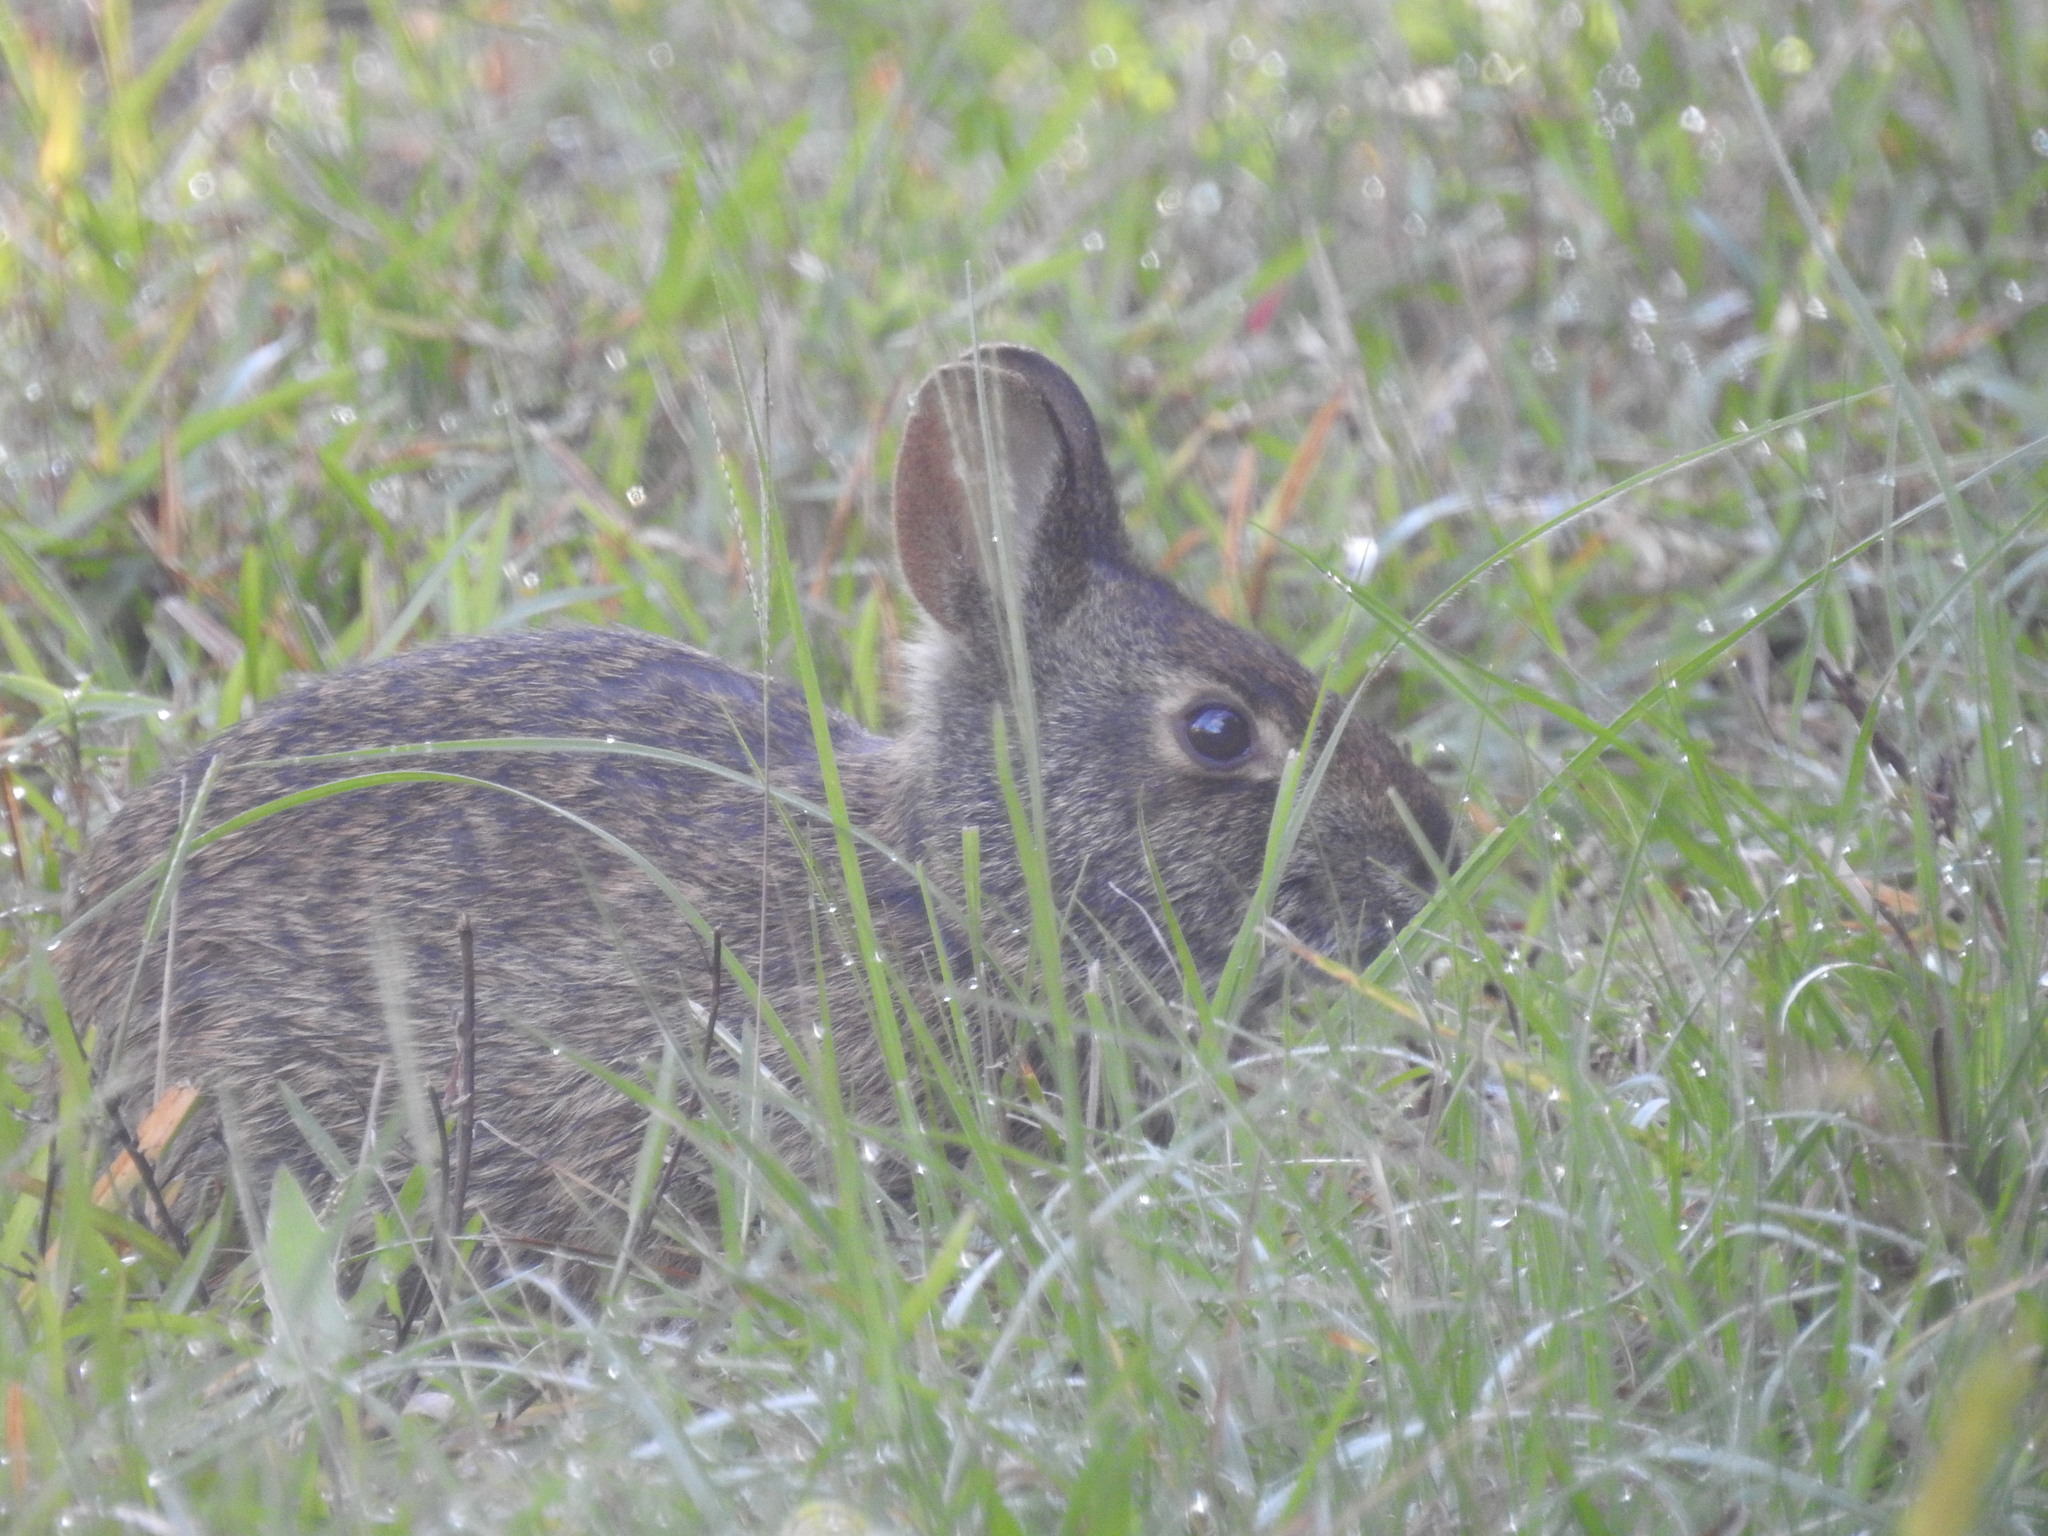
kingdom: Animalia
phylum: Chordata
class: Mammalia
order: Lagomorpha
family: Leporidae
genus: Sylvilagus
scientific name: Sylvilagus palustris
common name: Marsh rabbit
